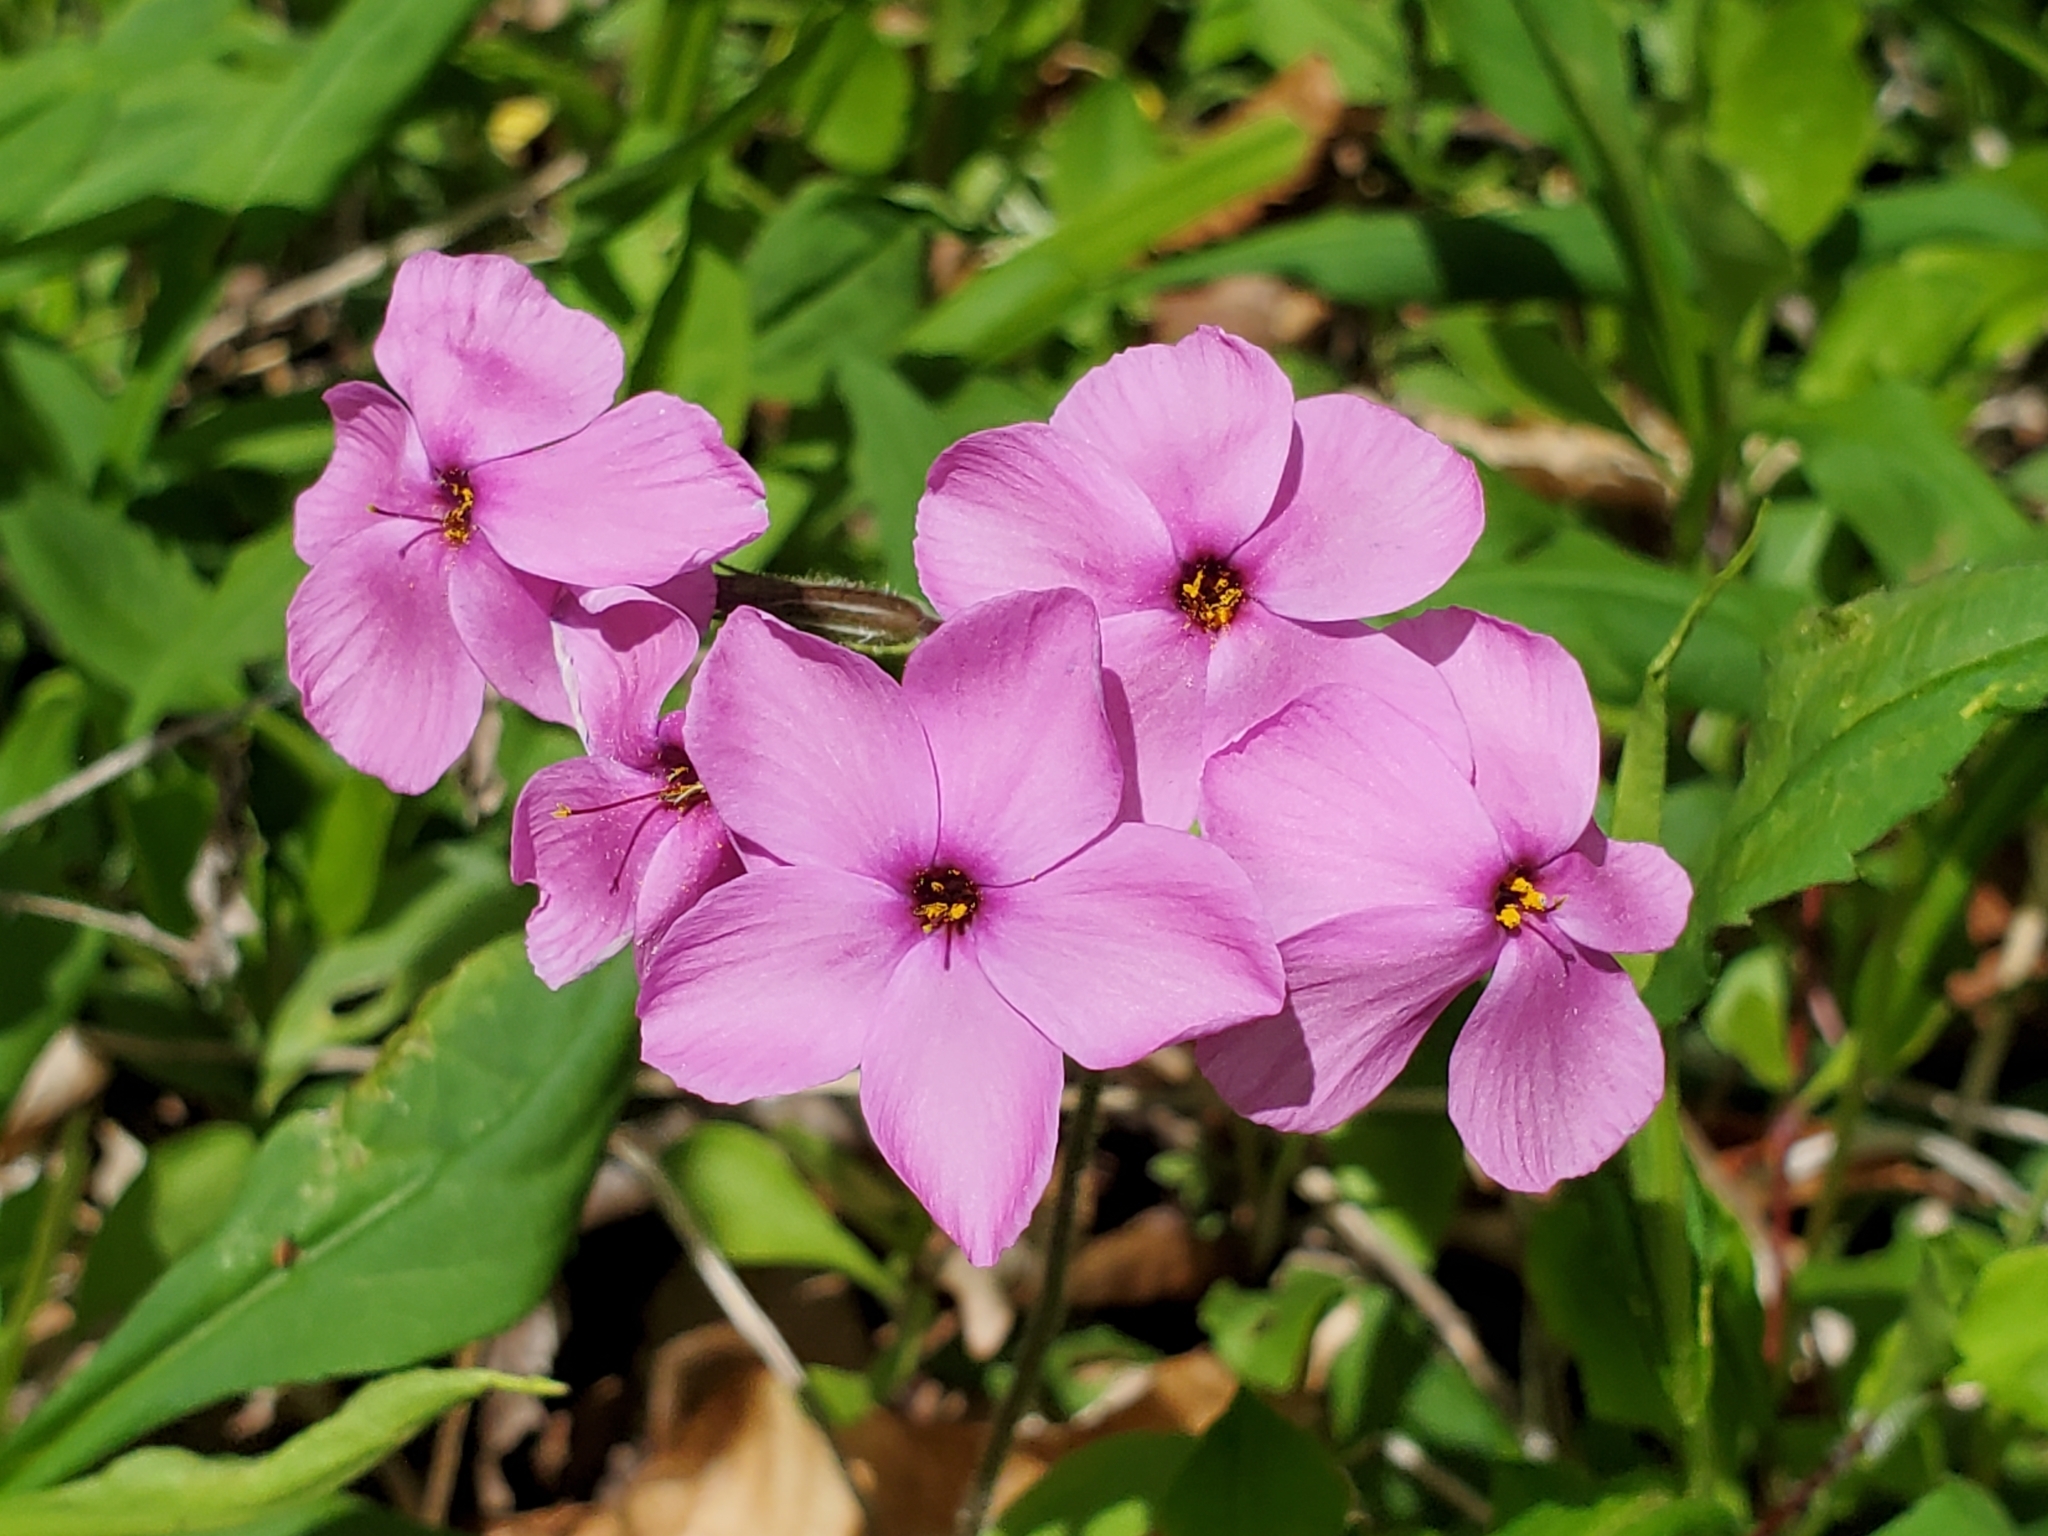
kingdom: Plantae
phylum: Tracheophyta
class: Magnoliopsida
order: Ericales
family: Polemoniaceae
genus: Phlox
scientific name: Phlox stolonifera
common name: Creeping phlox
